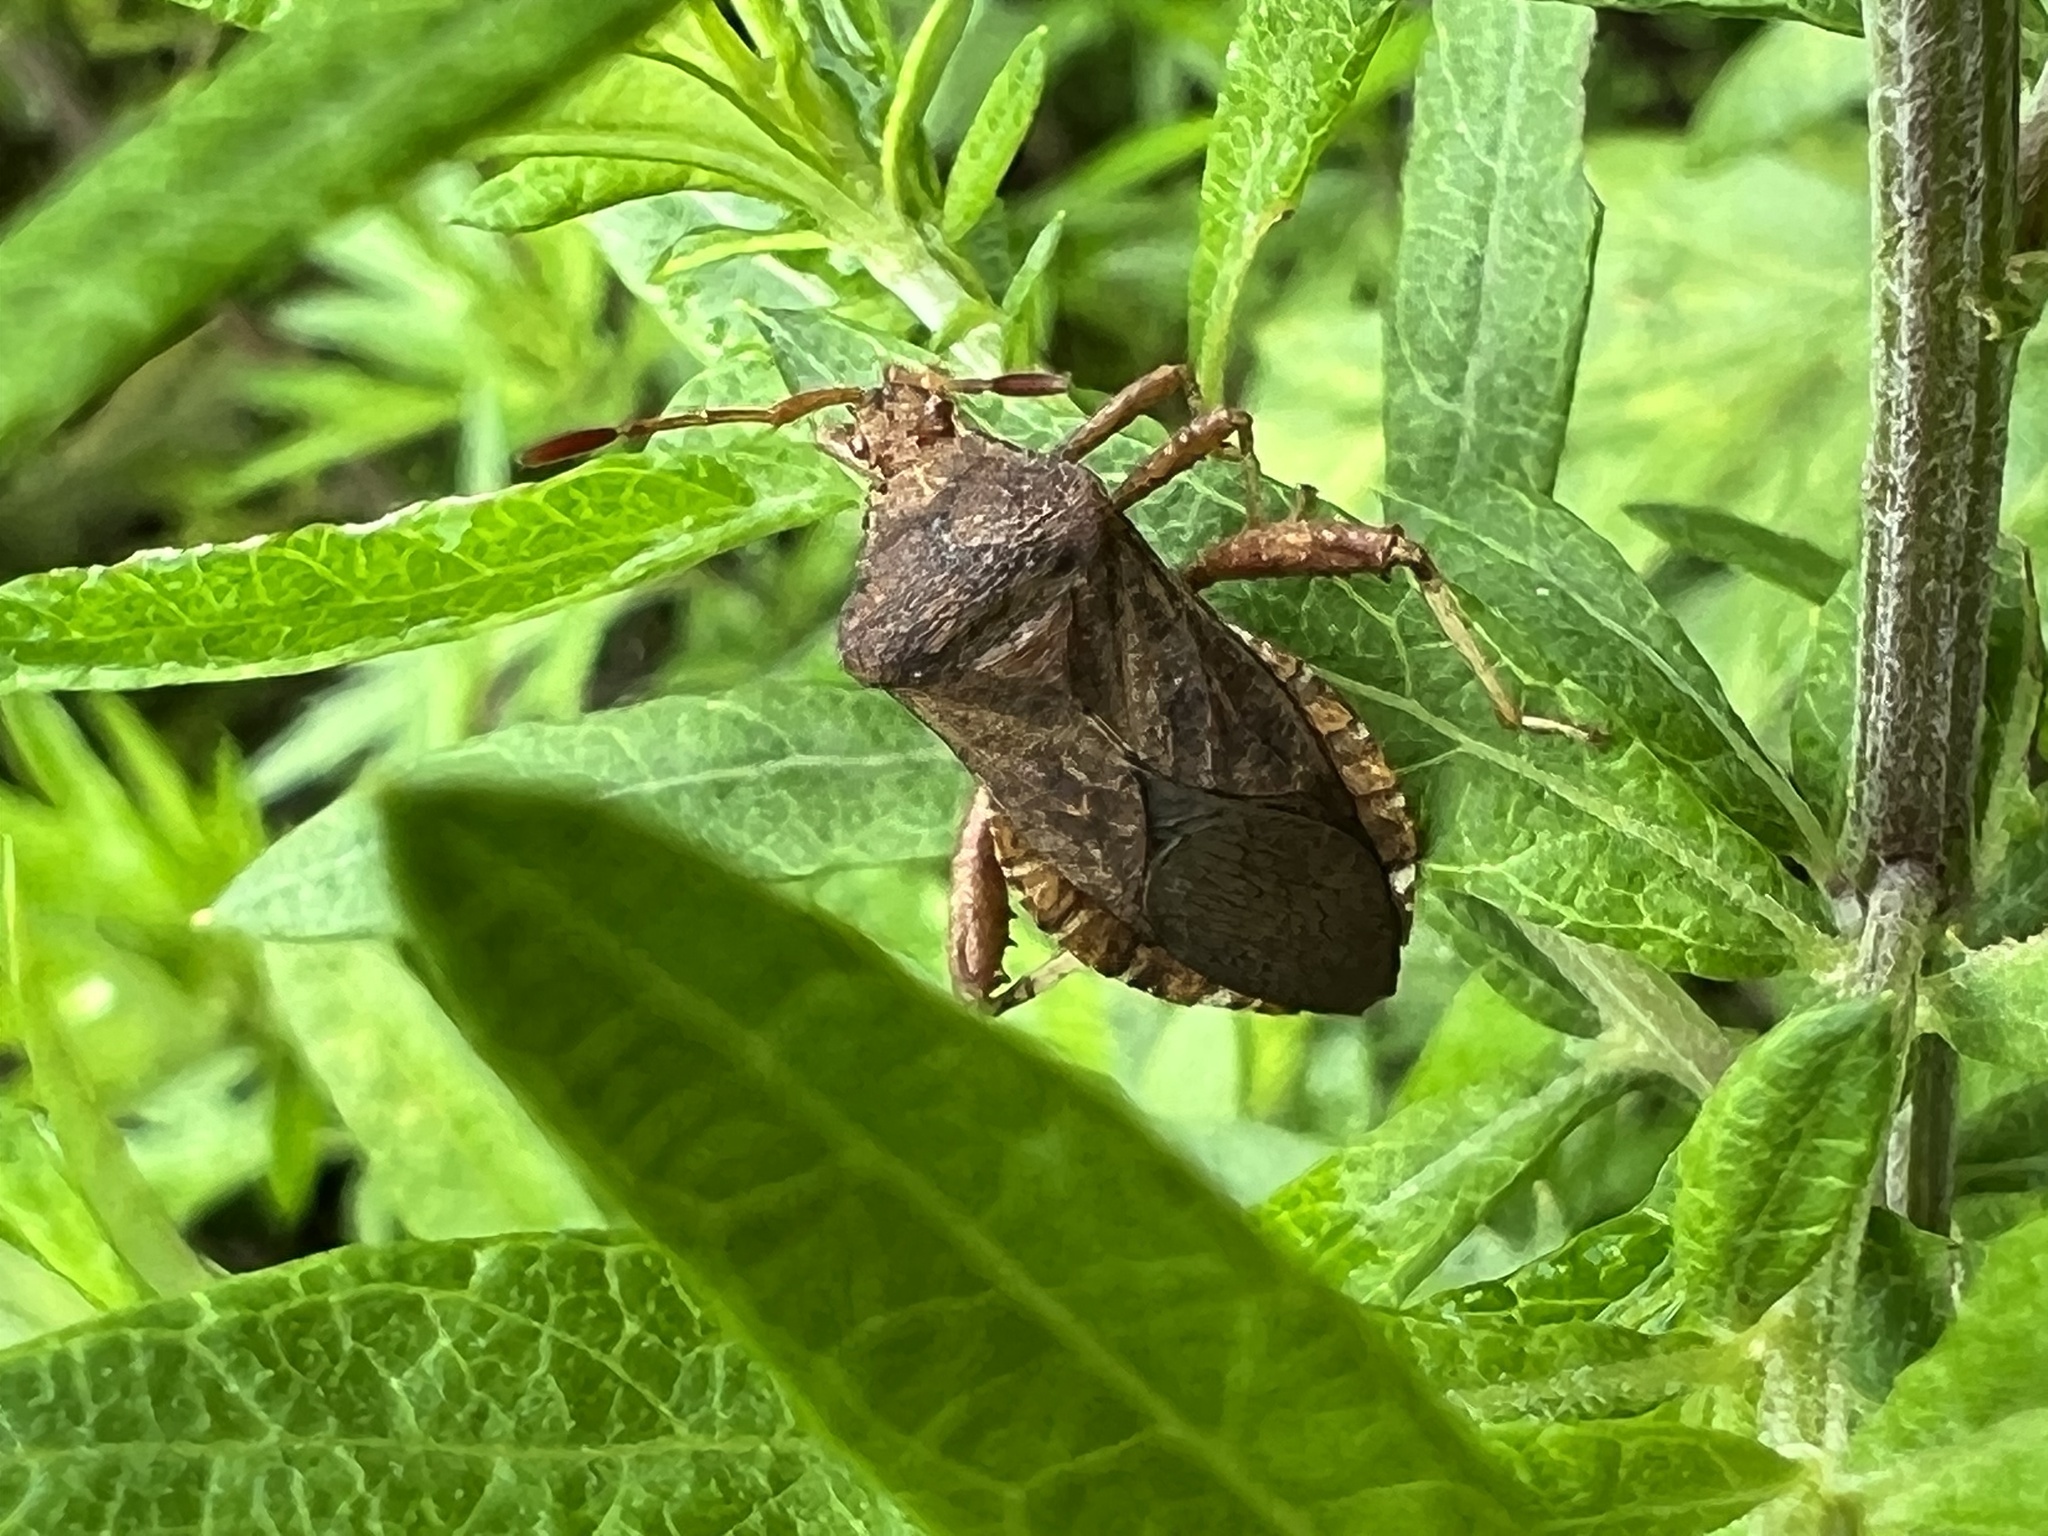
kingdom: Animalia
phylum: Arthropoda
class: Insecta
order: Hemiptera
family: Coreidae
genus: Euthochtha
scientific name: Euthochtha galeator
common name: Helmeted squash bug
